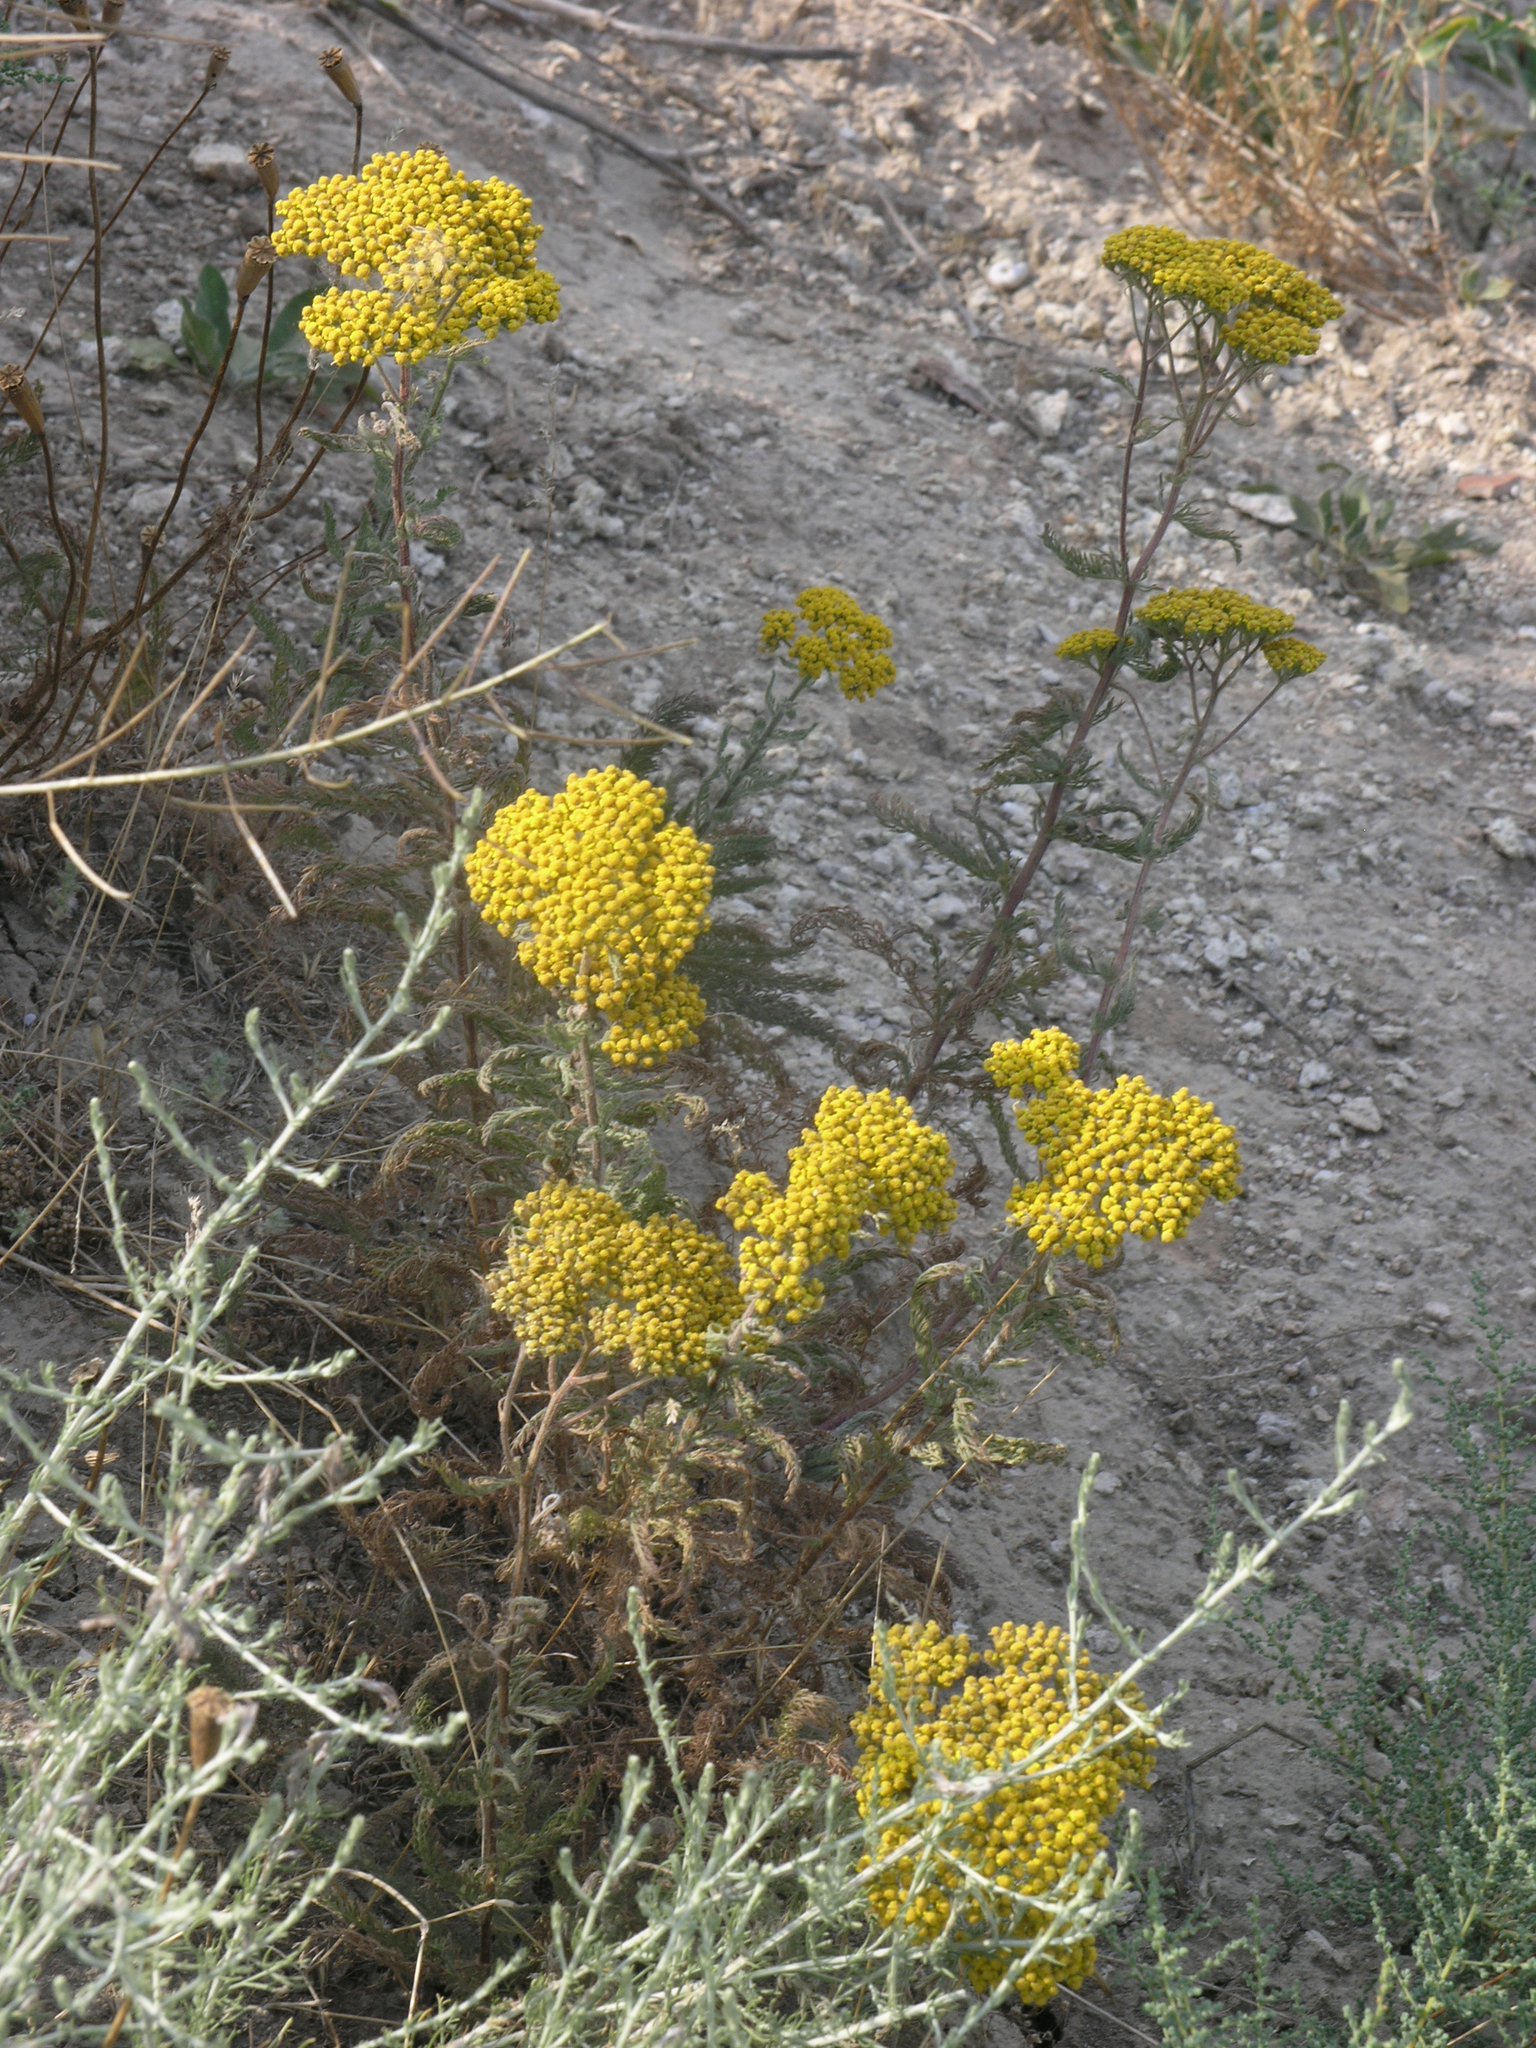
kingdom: Plantae
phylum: Tracheophyta
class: Magnoliopsida
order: Asterales
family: Asteraceae
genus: Achillea
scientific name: Achillea arabica
